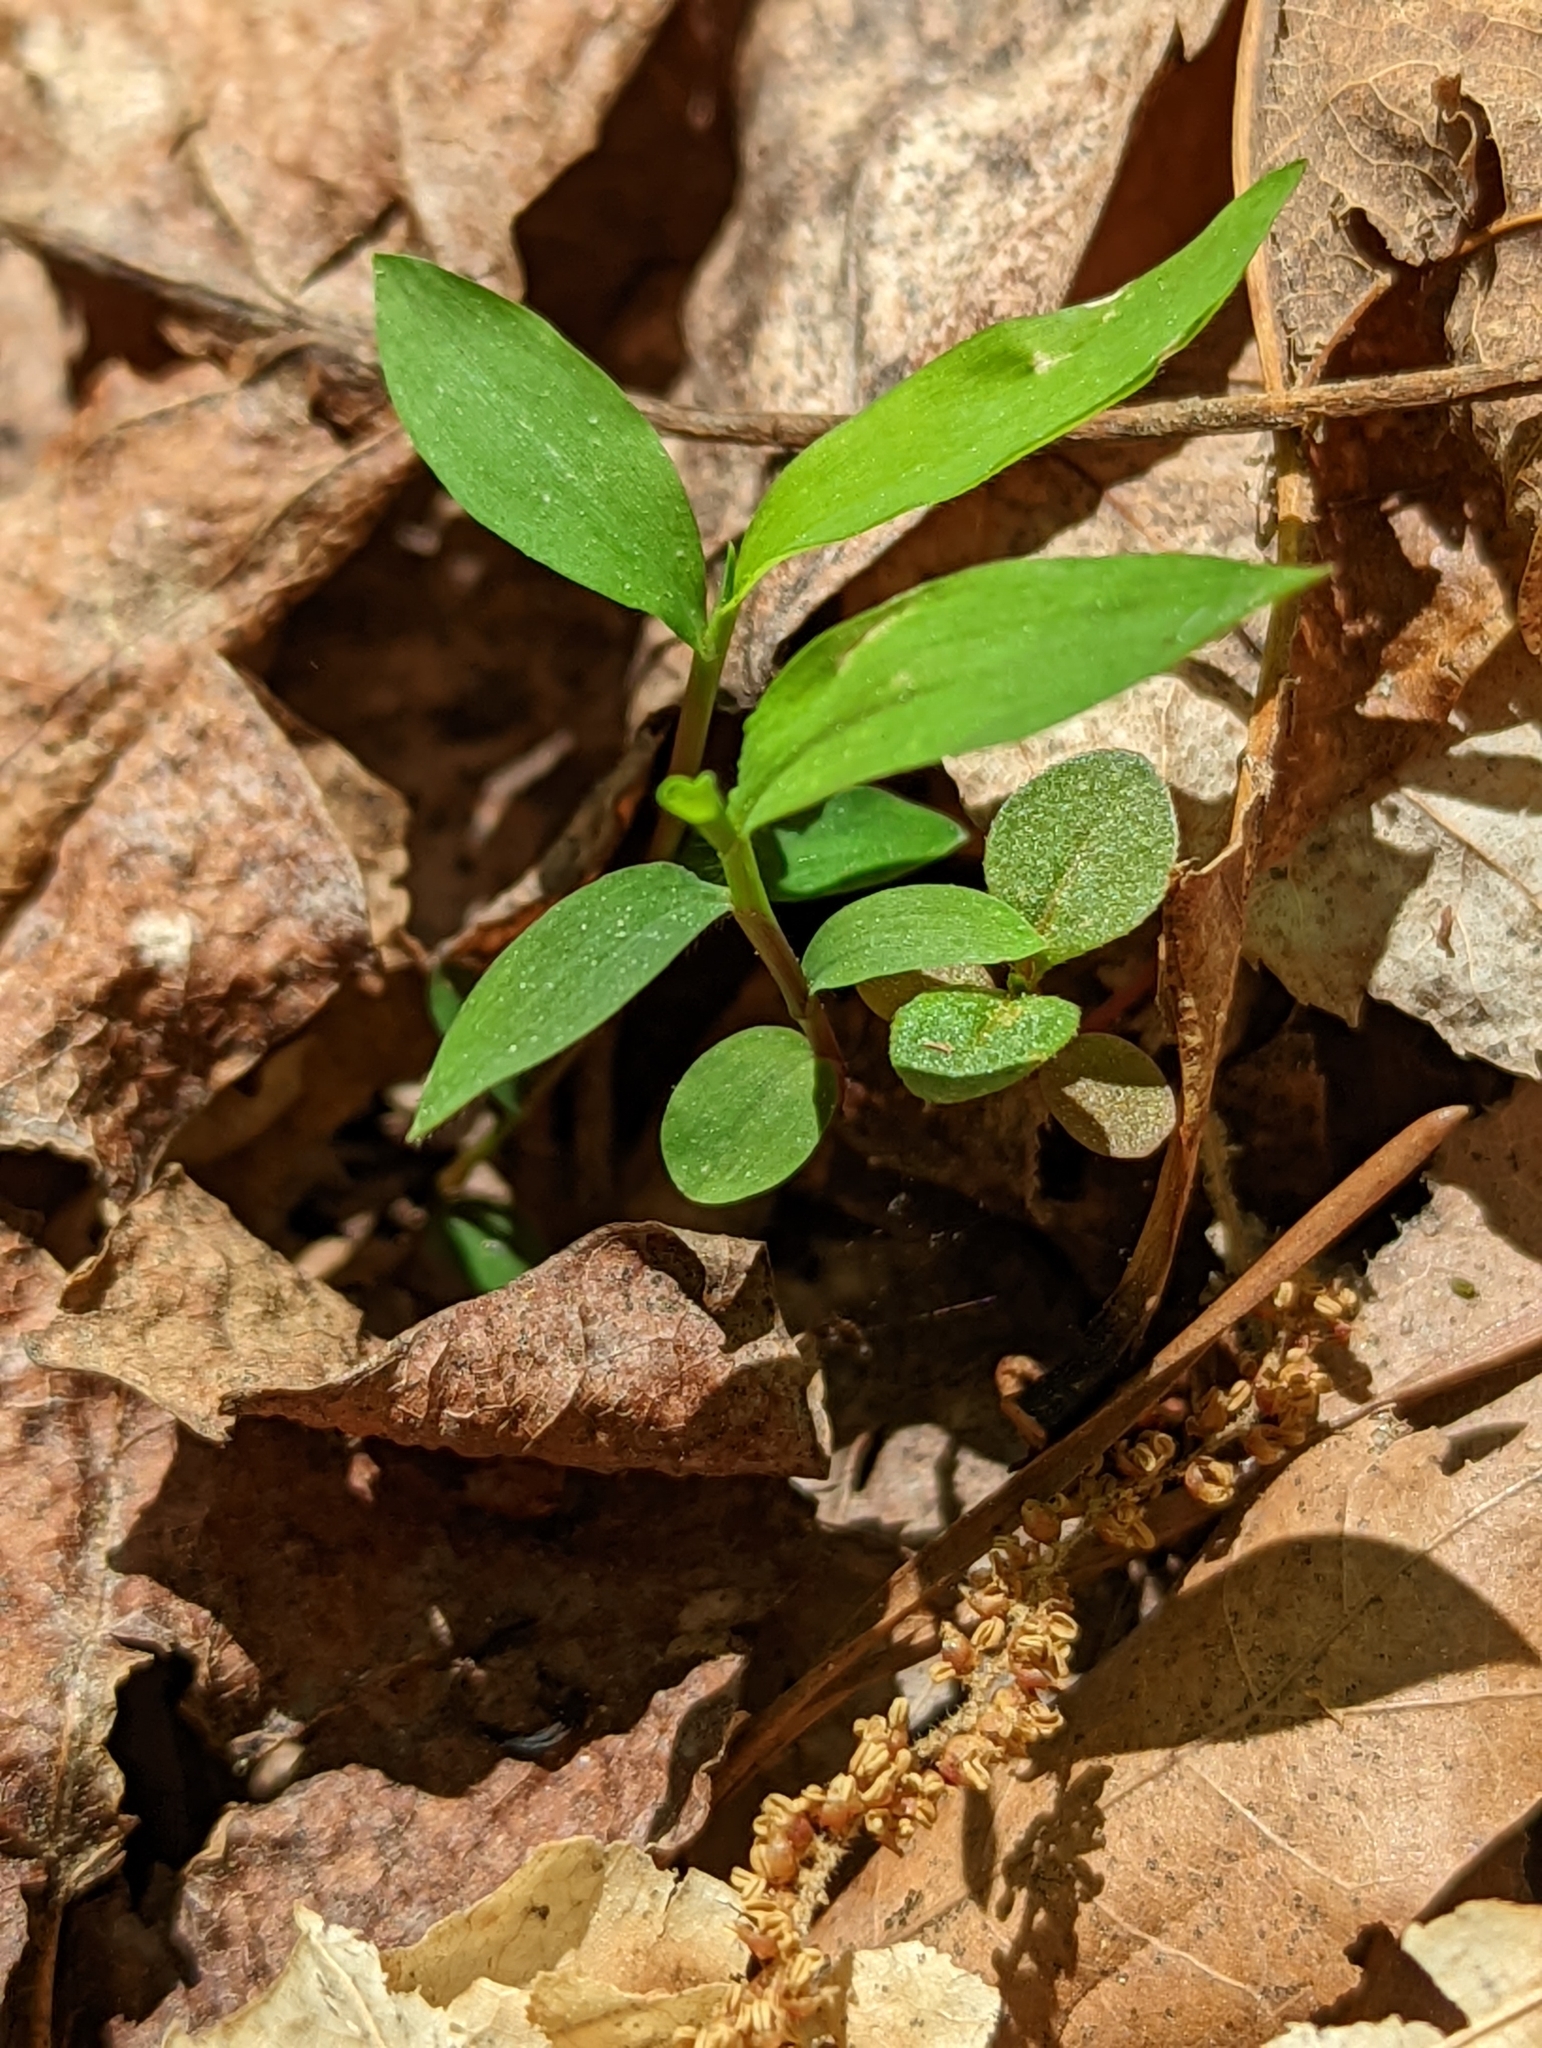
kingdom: Plantae
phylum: Tracheophyta
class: Liliopsida
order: Poales
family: Poaceae
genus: Microstegium
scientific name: Microstegium vimineum
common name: Japanese stiltgrass
